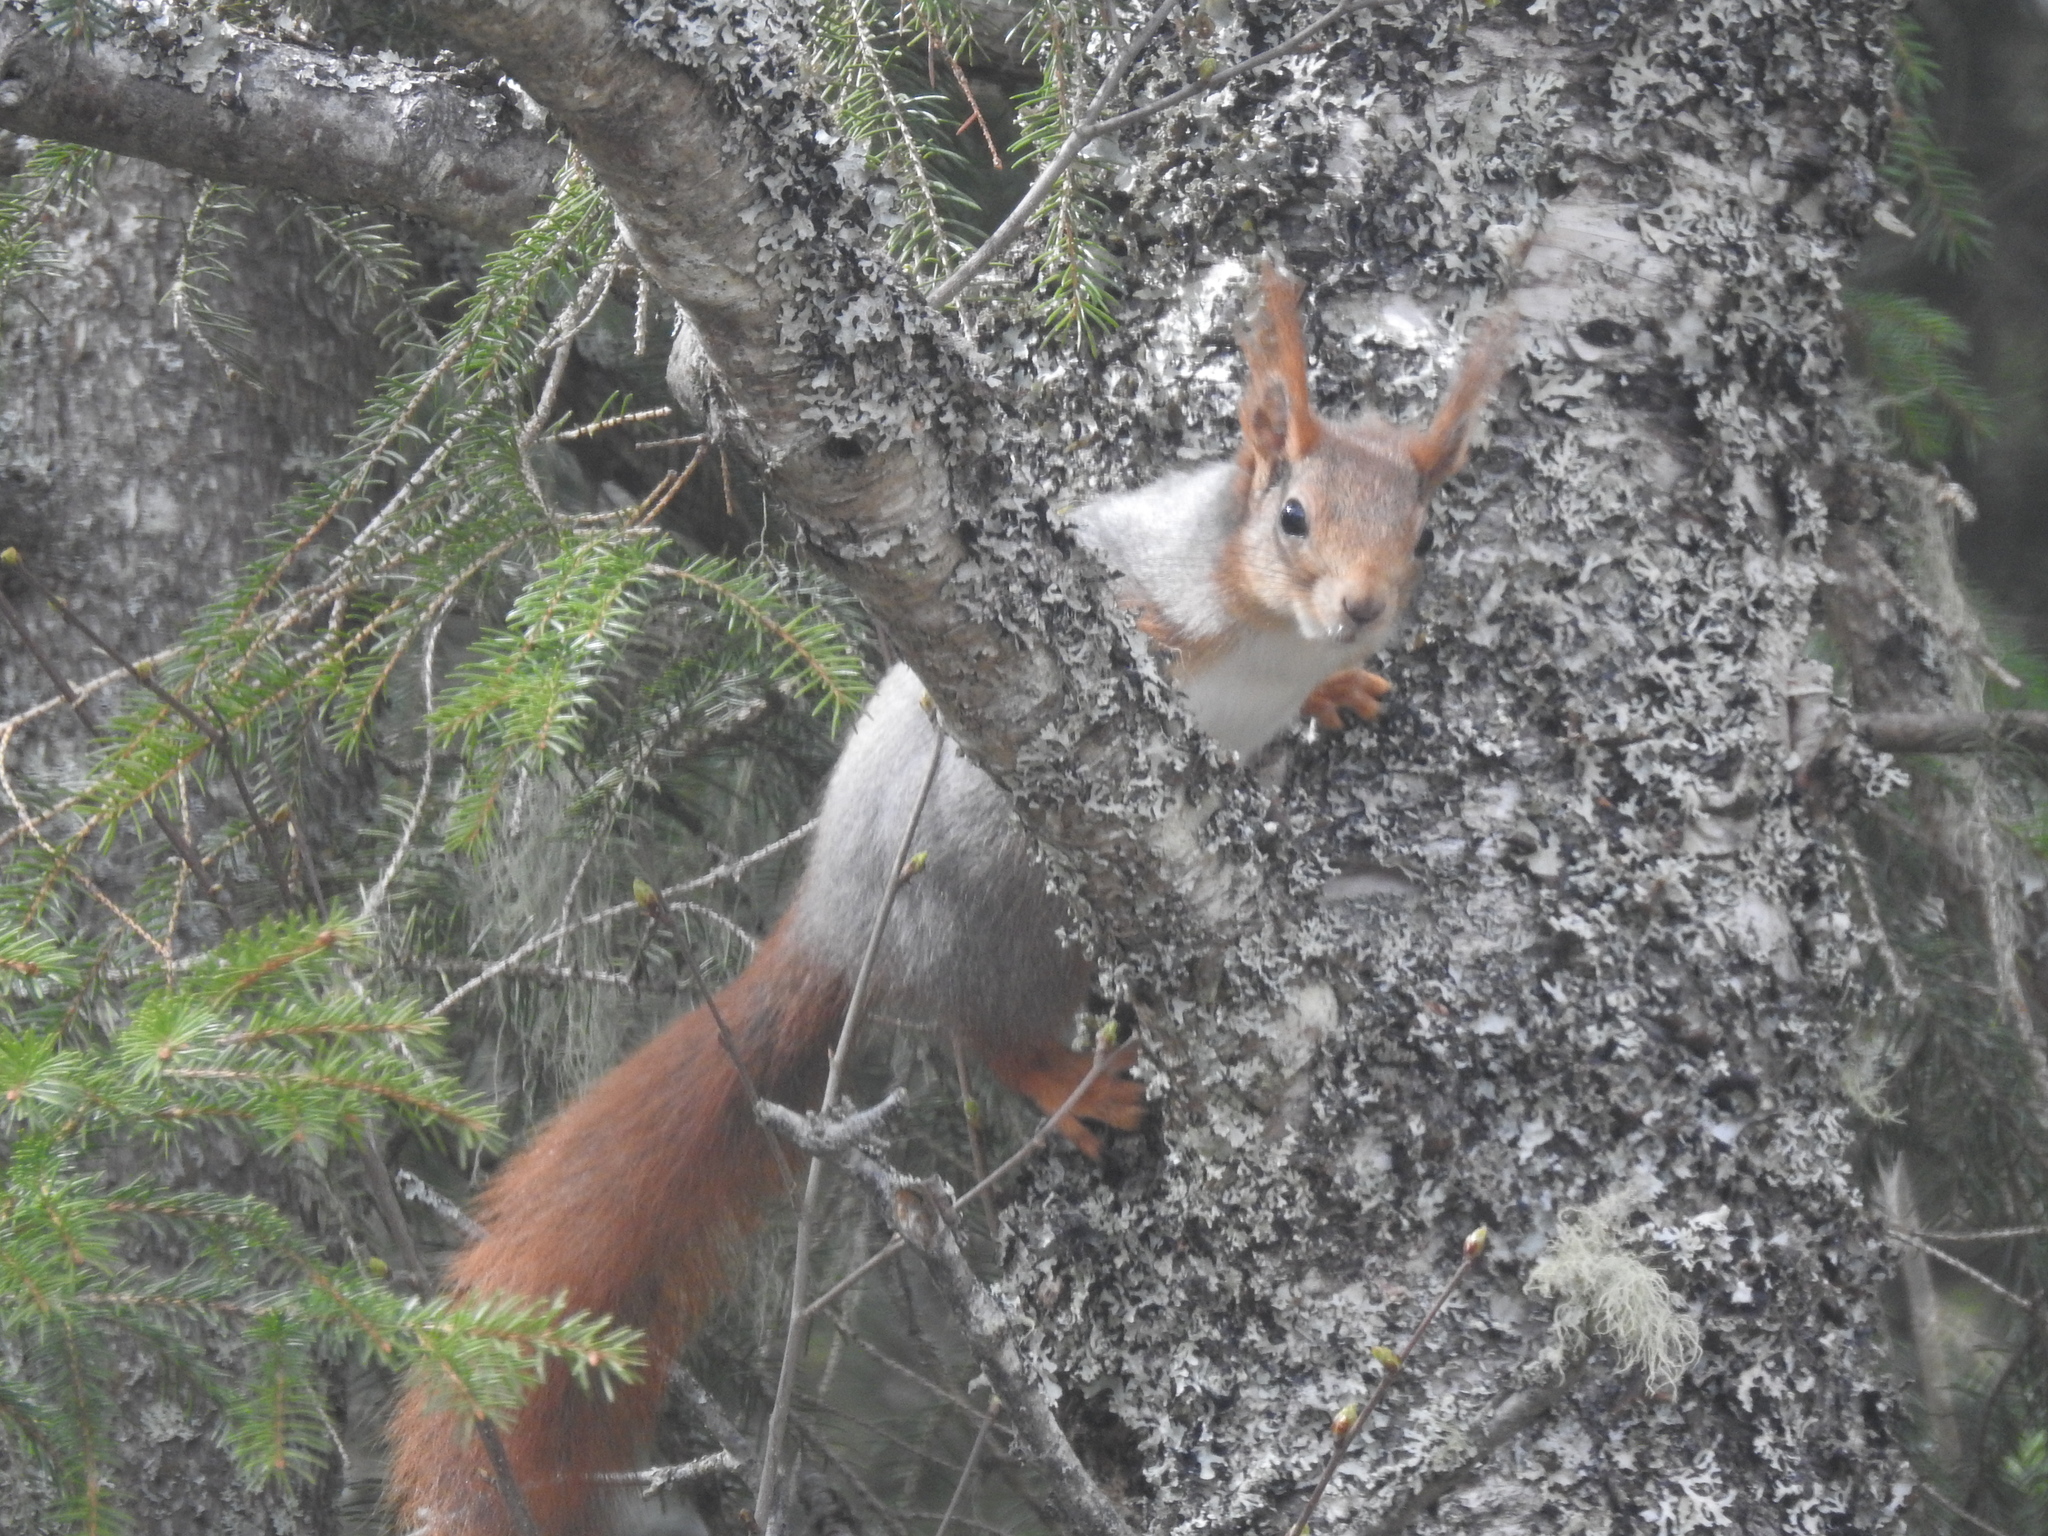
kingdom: Animalia
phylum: Chordata
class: Mammalia
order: Rodentia
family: Sciuridae
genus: Sciurus
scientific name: Sciurus vulgaris
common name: Eurasian red squirrel
